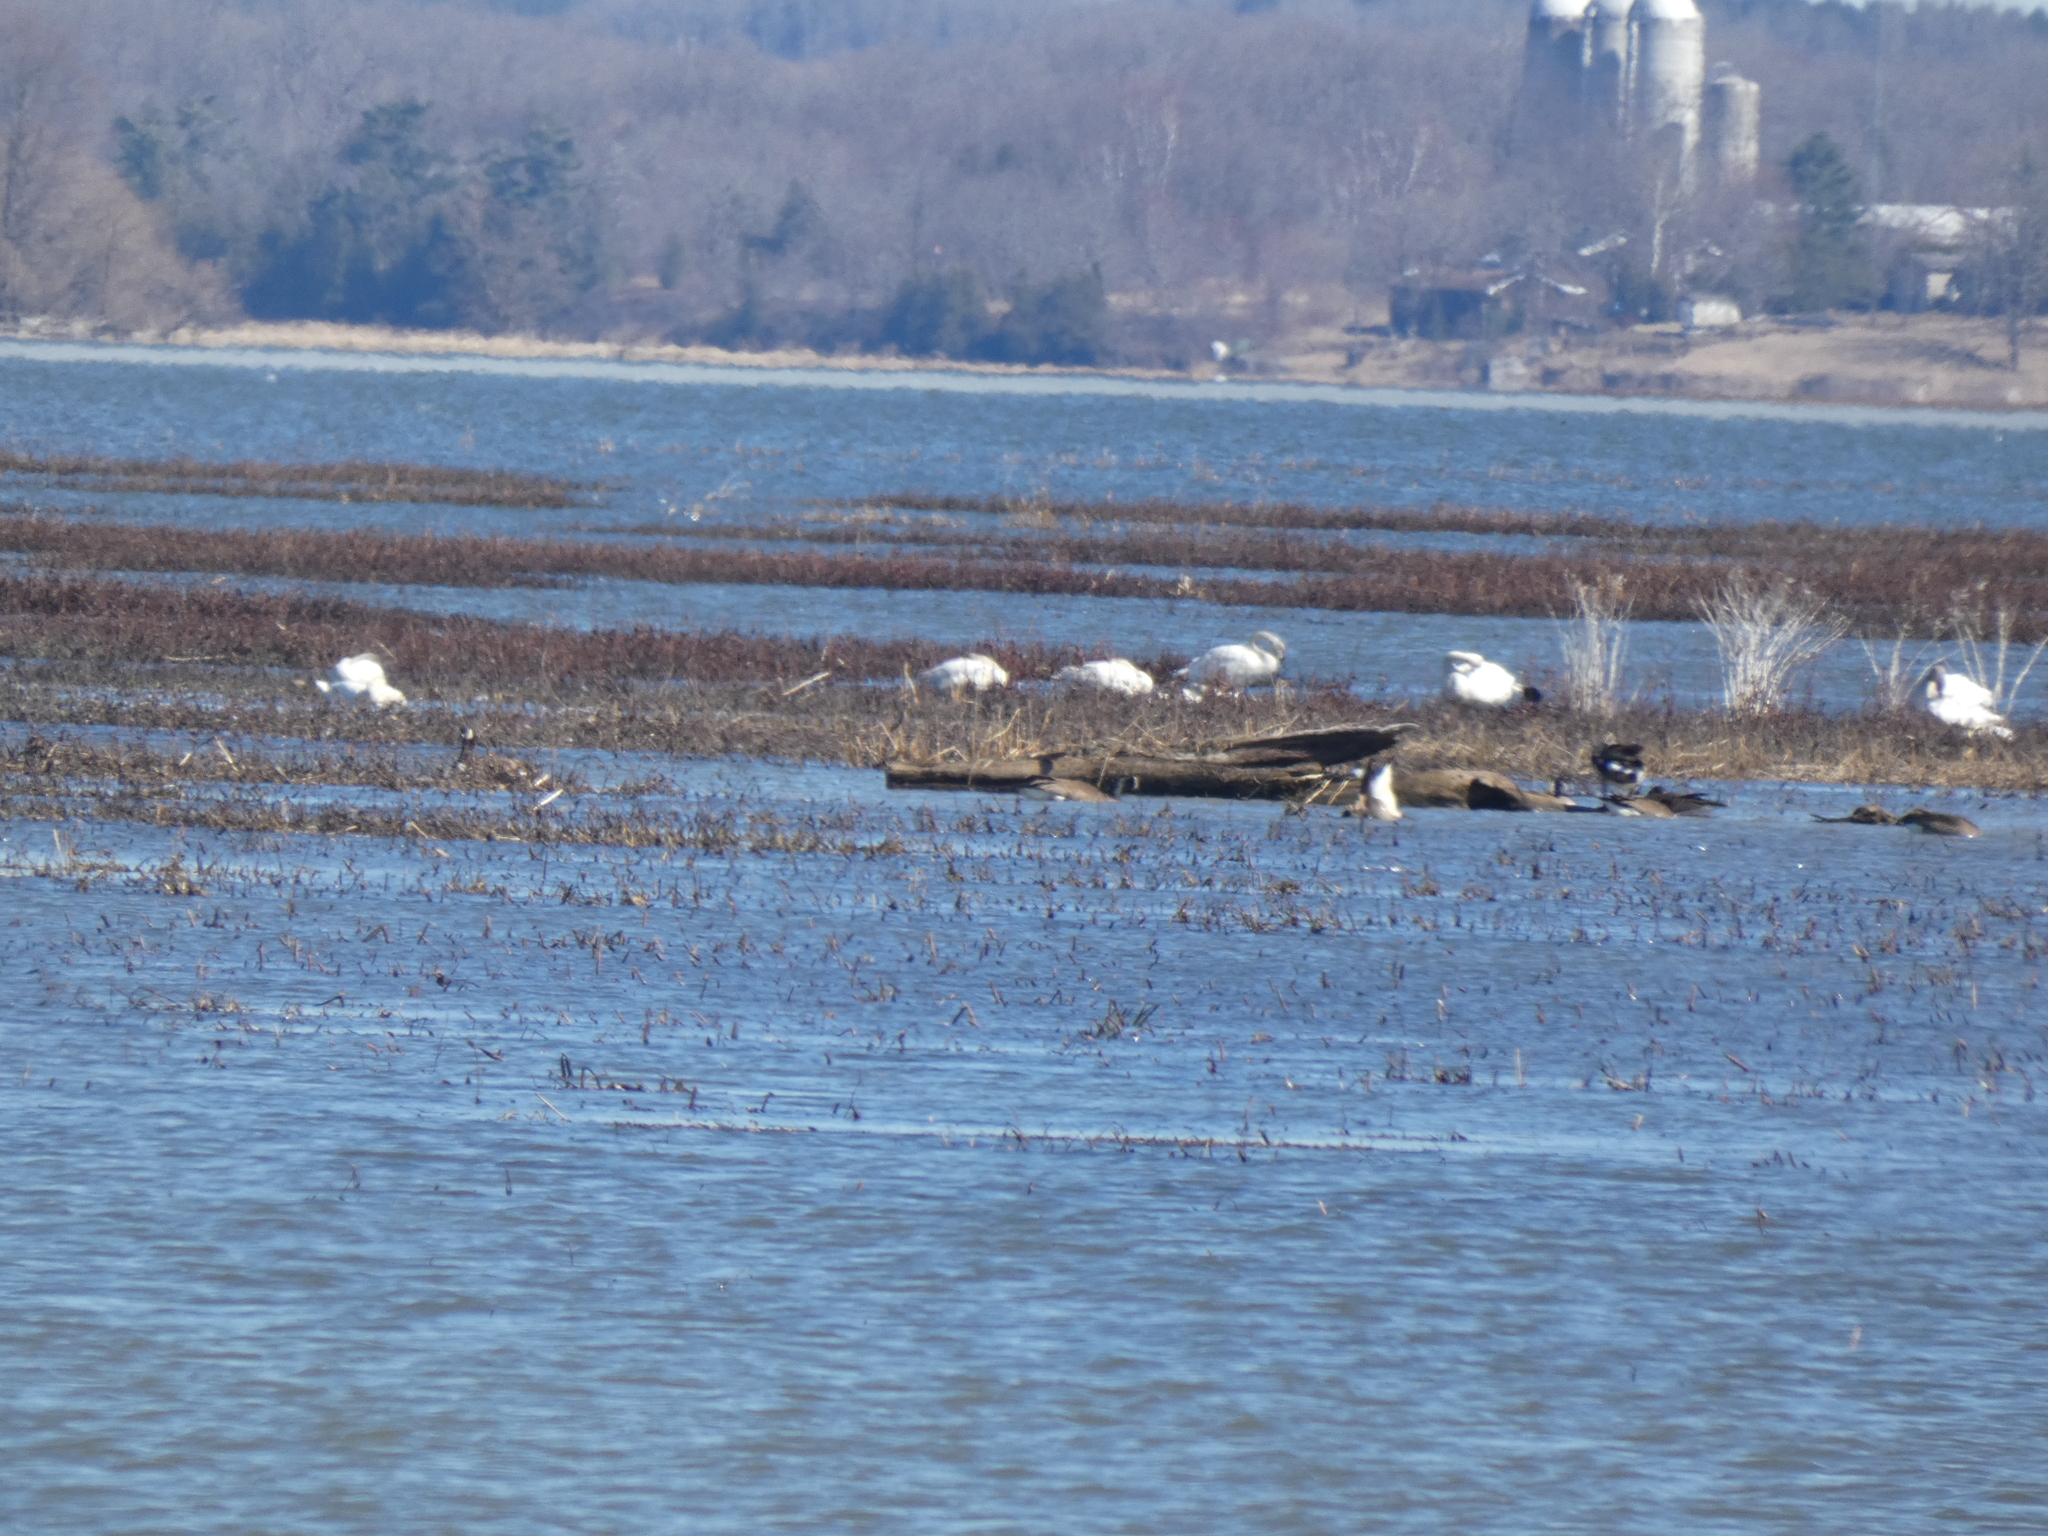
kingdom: Animalia
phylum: Chordata
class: Aves
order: Anseriformes
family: Anatidae
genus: Cygnus
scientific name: Cygnus columbianus
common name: Tundra swan
